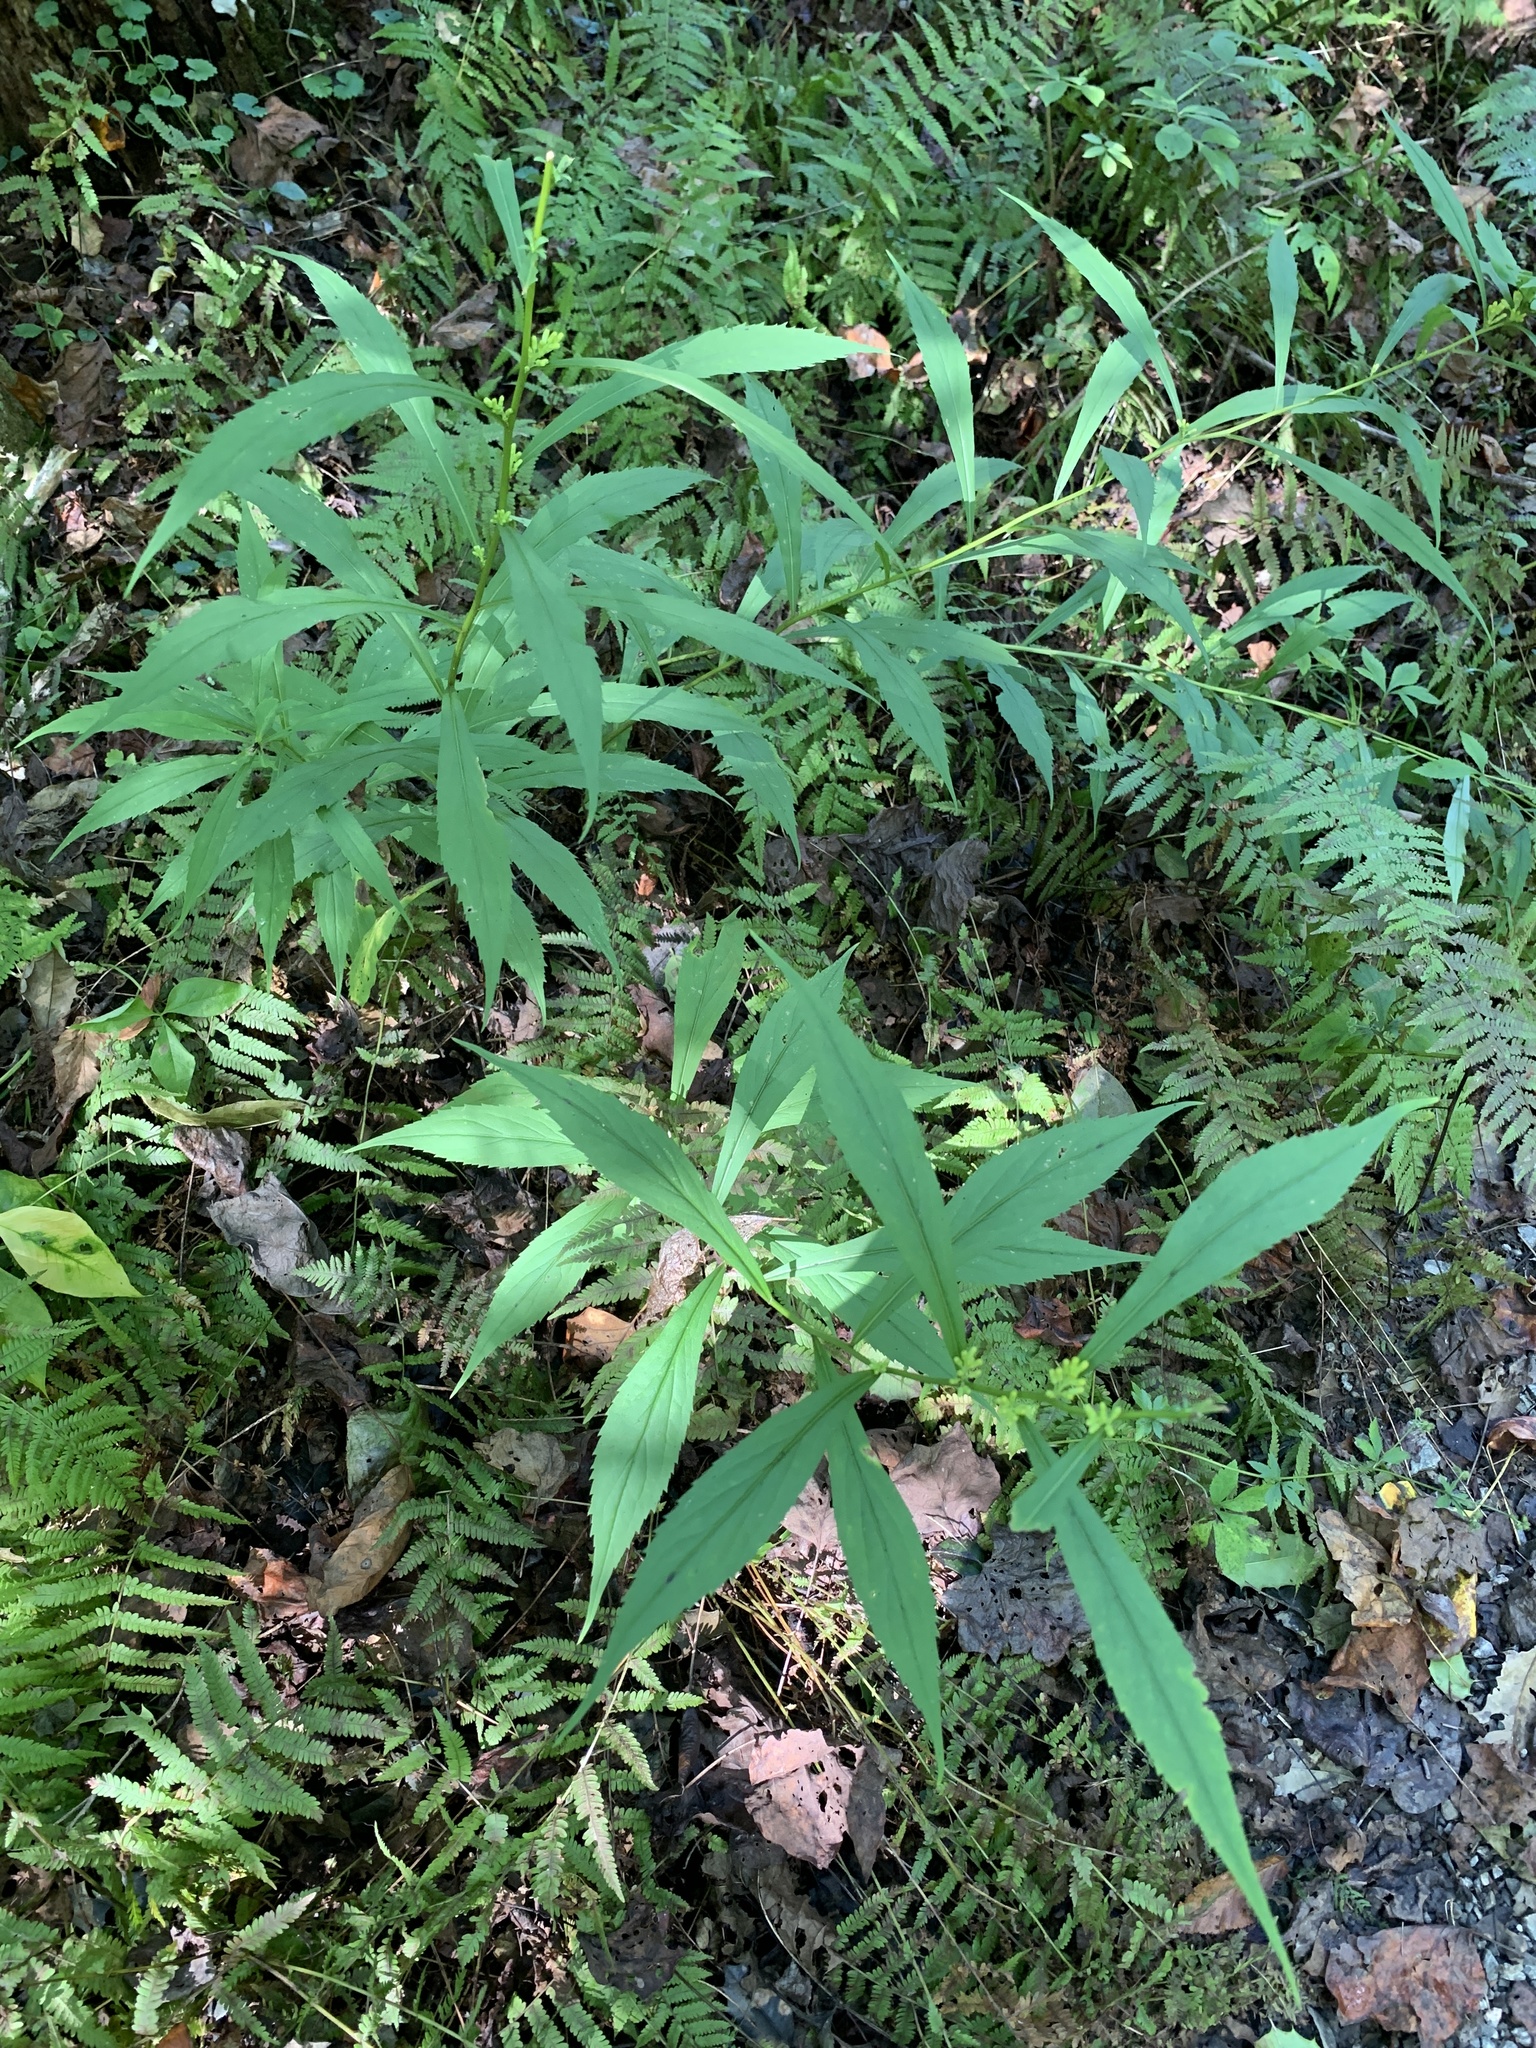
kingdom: Plantae
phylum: Tracheophyta
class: Magnoliopsida
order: Asterales
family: Asteraceae
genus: Solidago
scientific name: Solidago caesia
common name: Woodland goldenrod
